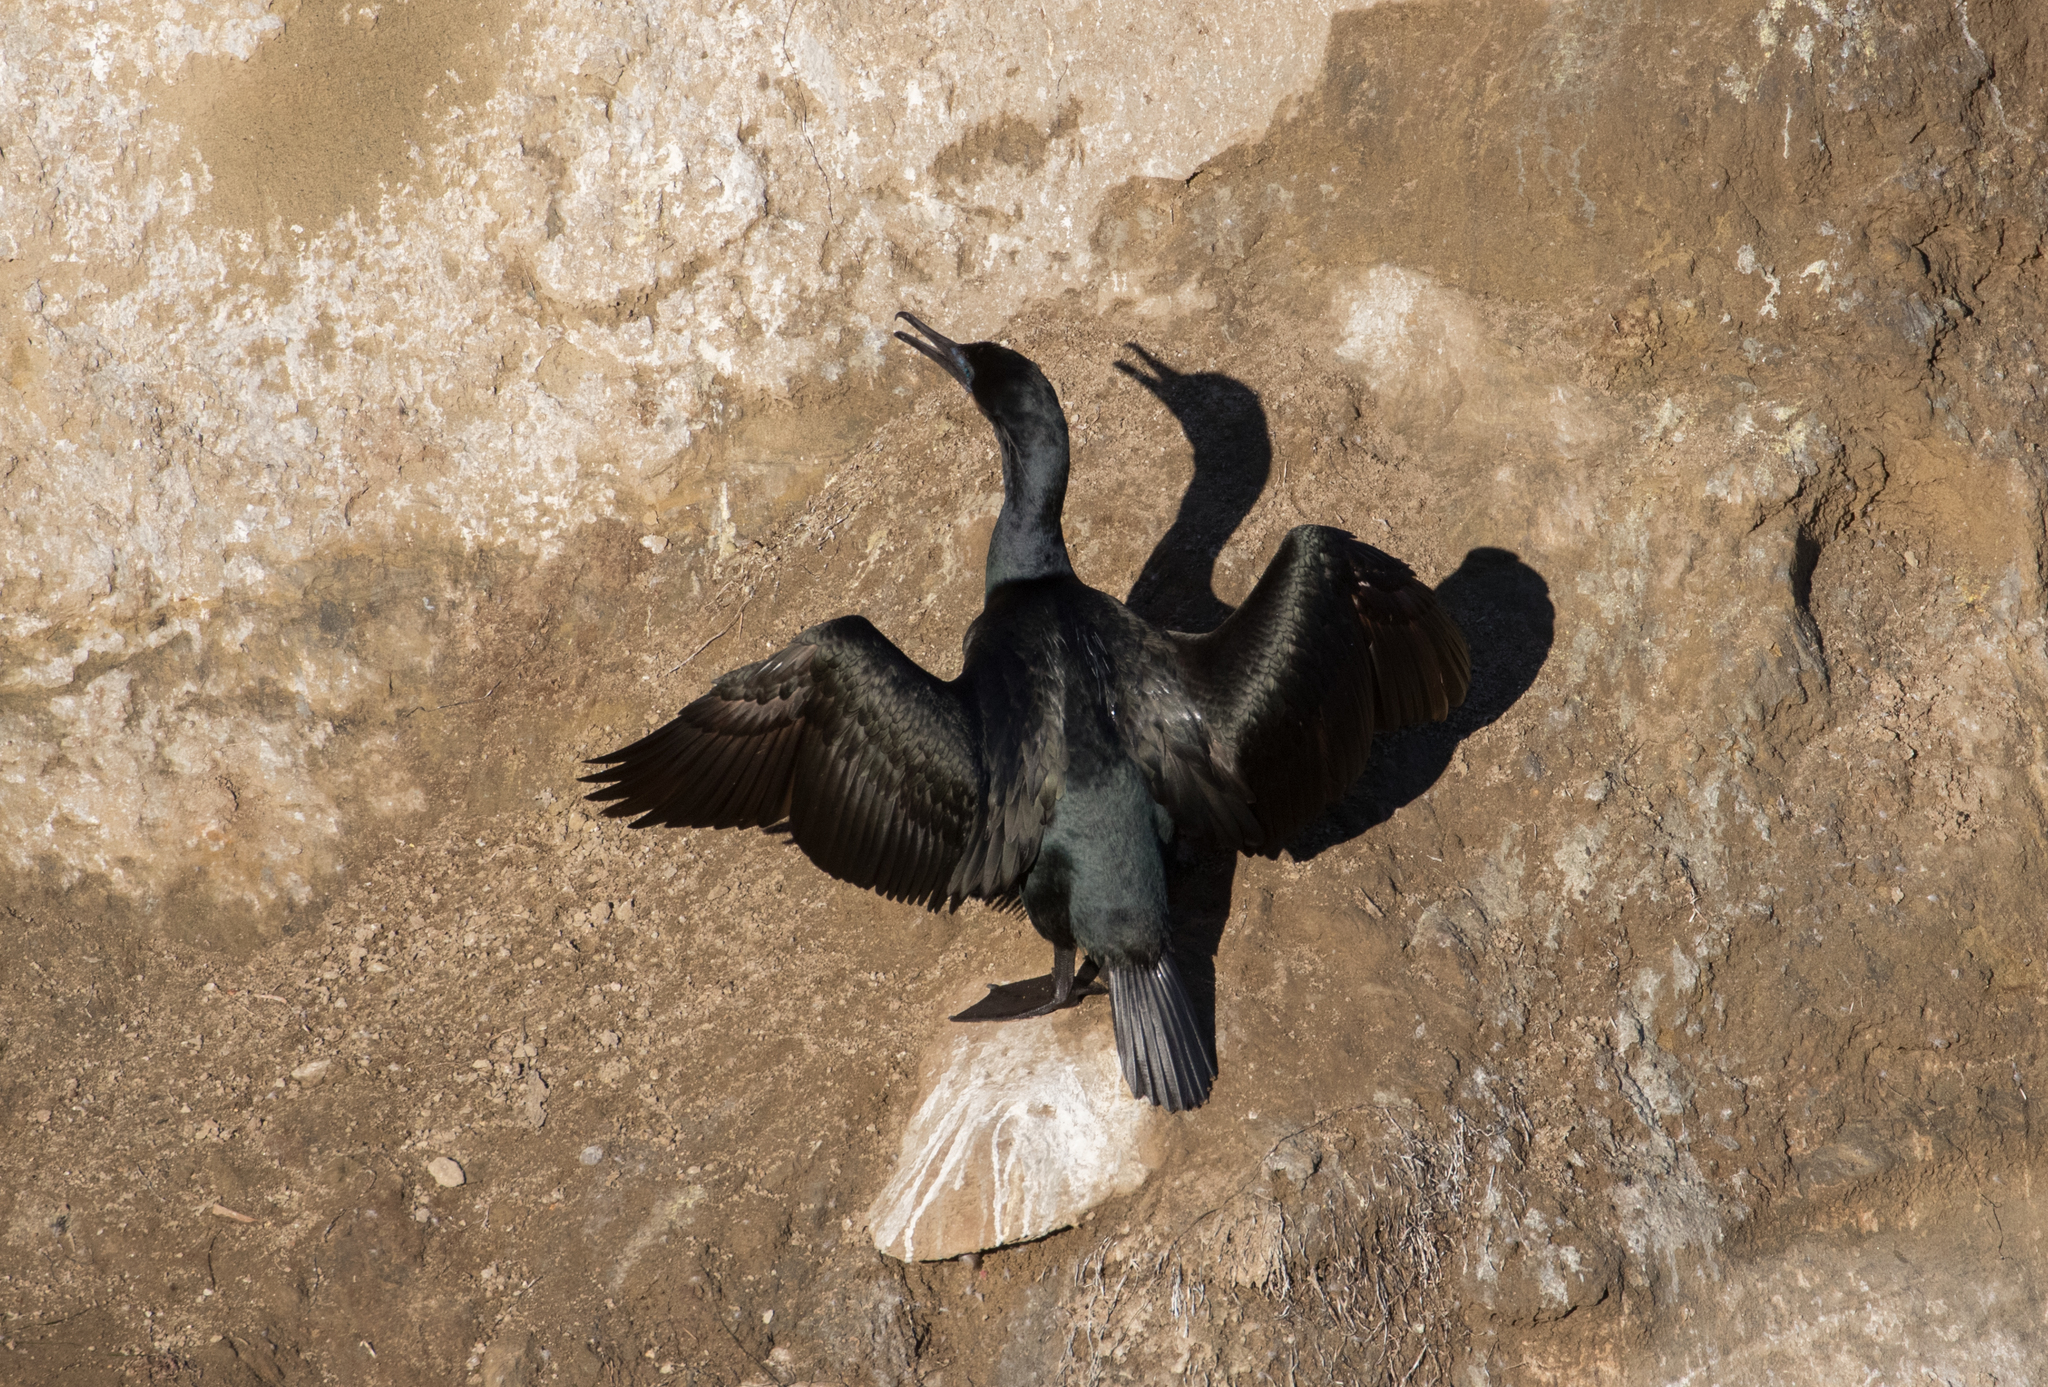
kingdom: Animalia
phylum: Chordata
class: Aves
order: Suliformes
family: Phalacrocoracidae
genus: Urile
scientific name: Urile penicillatus
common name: Brandt's cormorant
